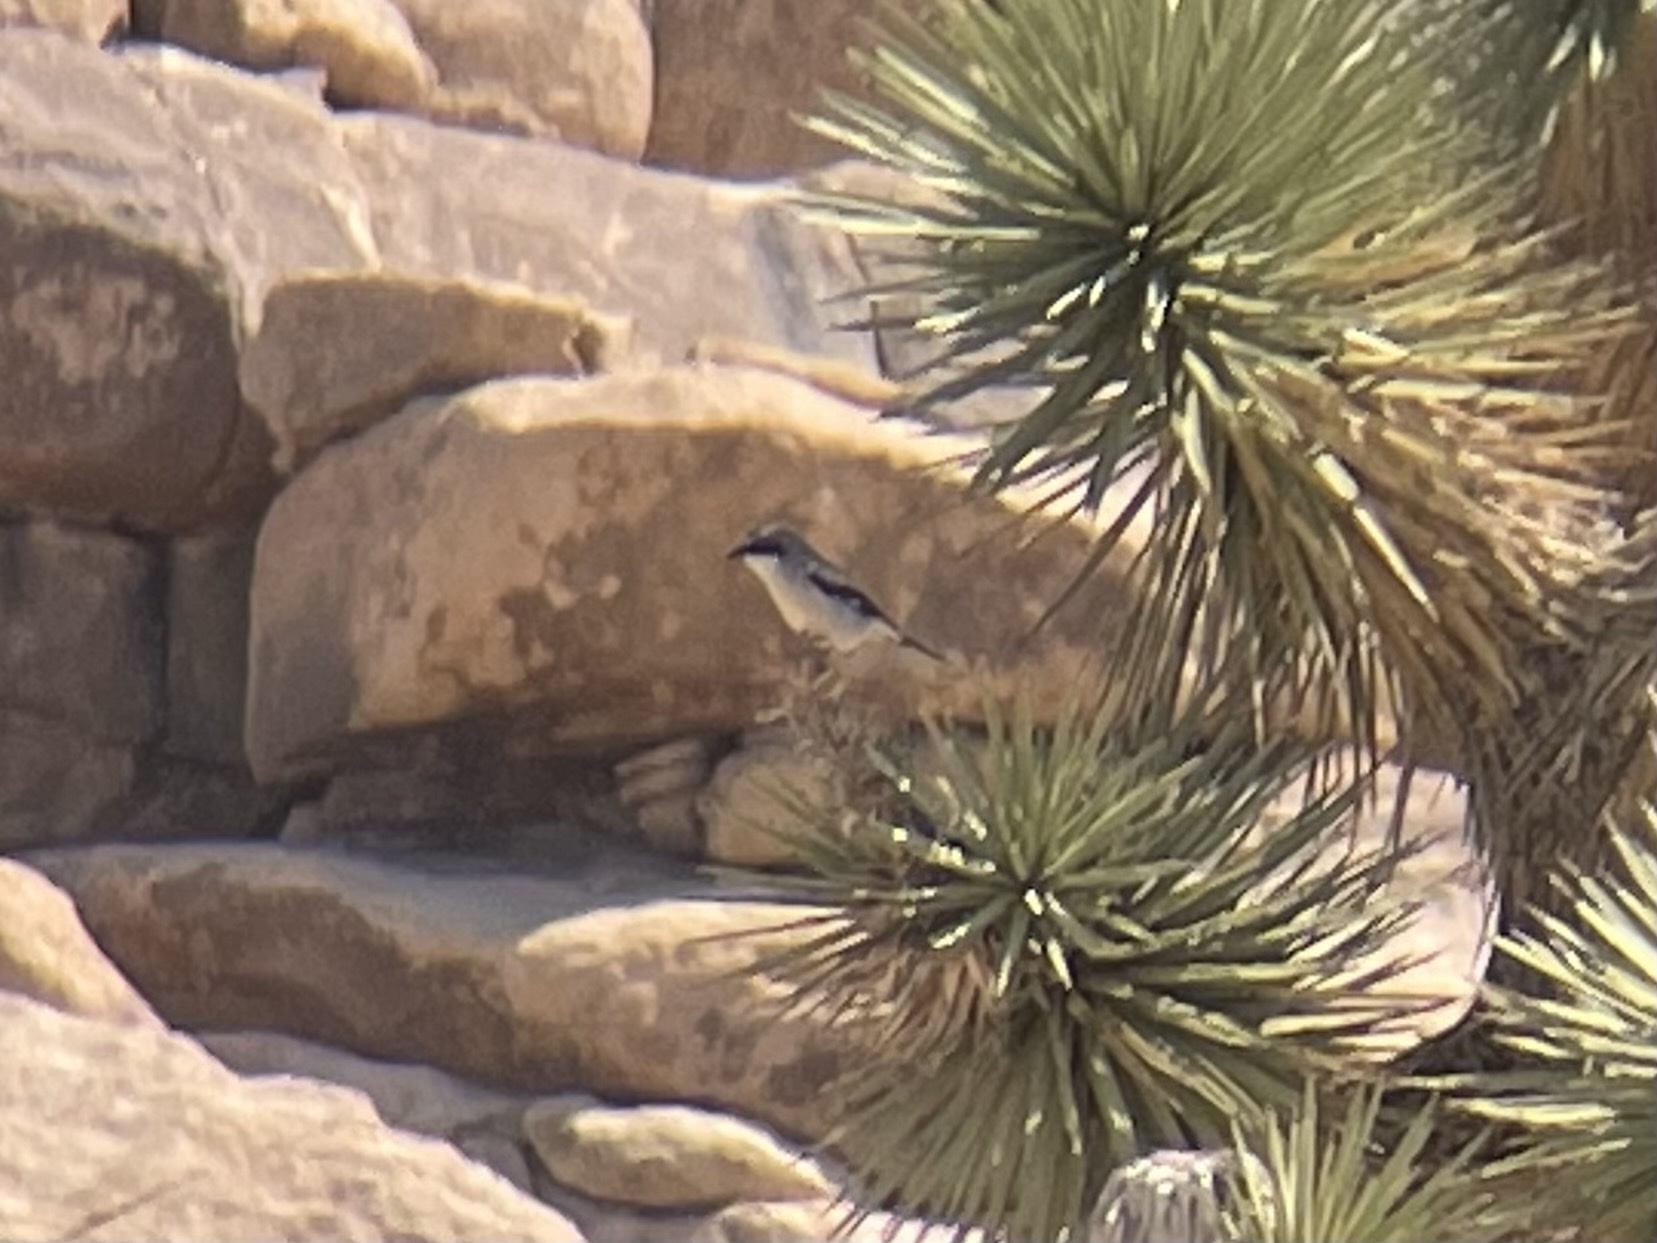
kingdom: Animalia
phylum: Chordata
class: Aves
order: Passeriformes
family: Laniidae
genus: Lanius
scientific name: Lanius ludovicianus
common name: Loggerhead shrike
